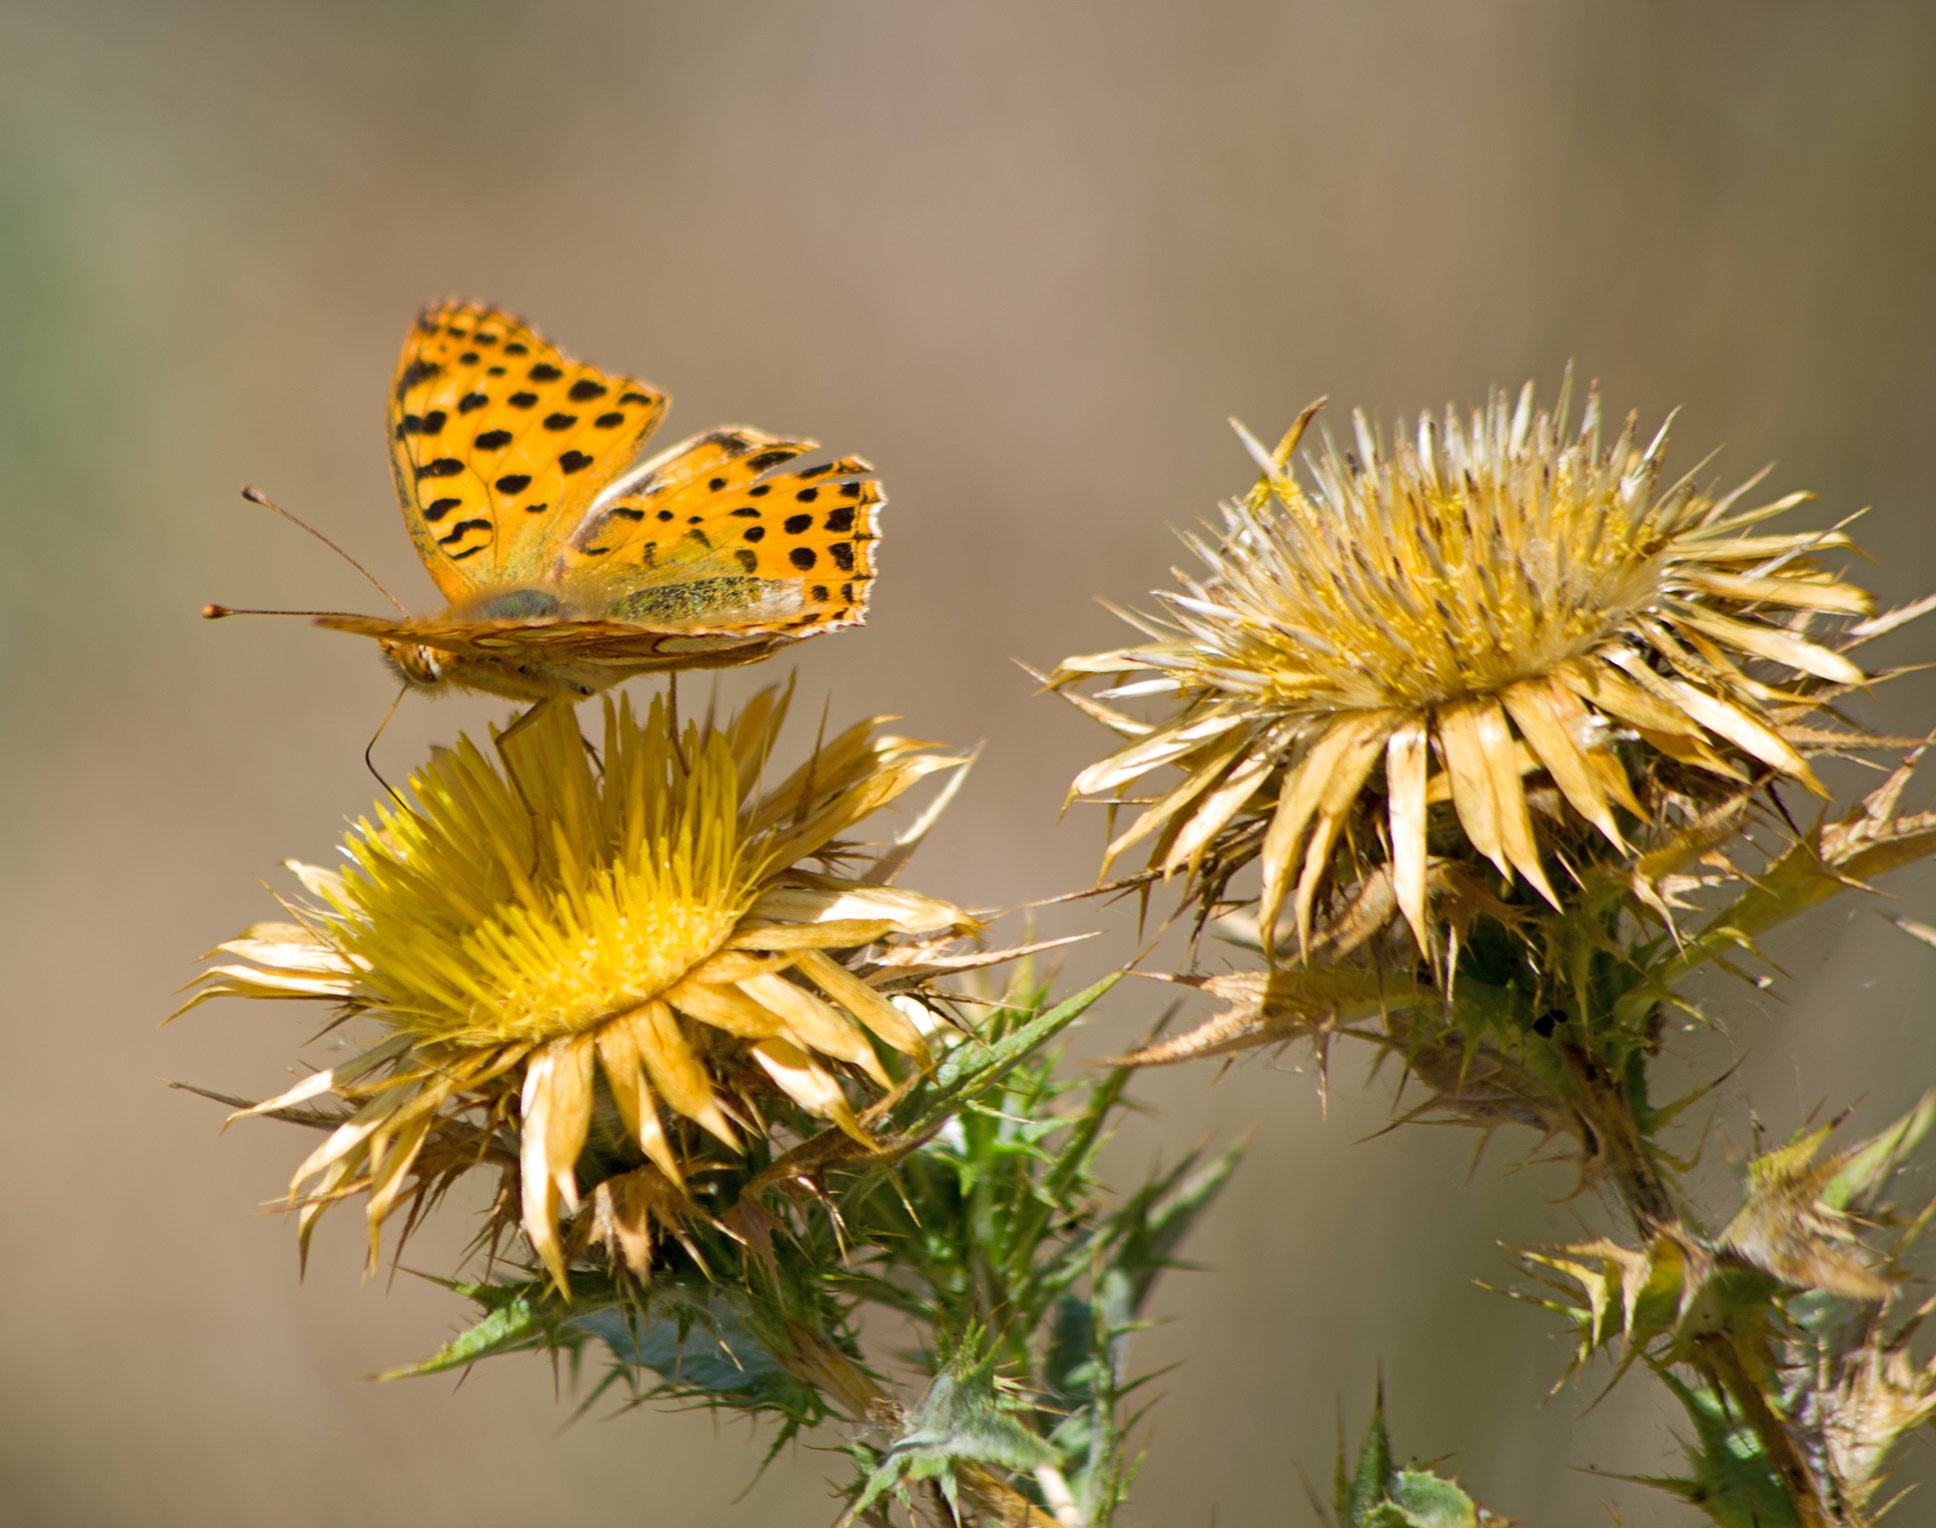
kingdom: Animalia
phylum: Arthropoda
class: Insecta
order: Lepidoptera
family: Nymphalidae
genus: Issoria
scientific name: Issoria lathonia
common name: Queen of spain fritillary
